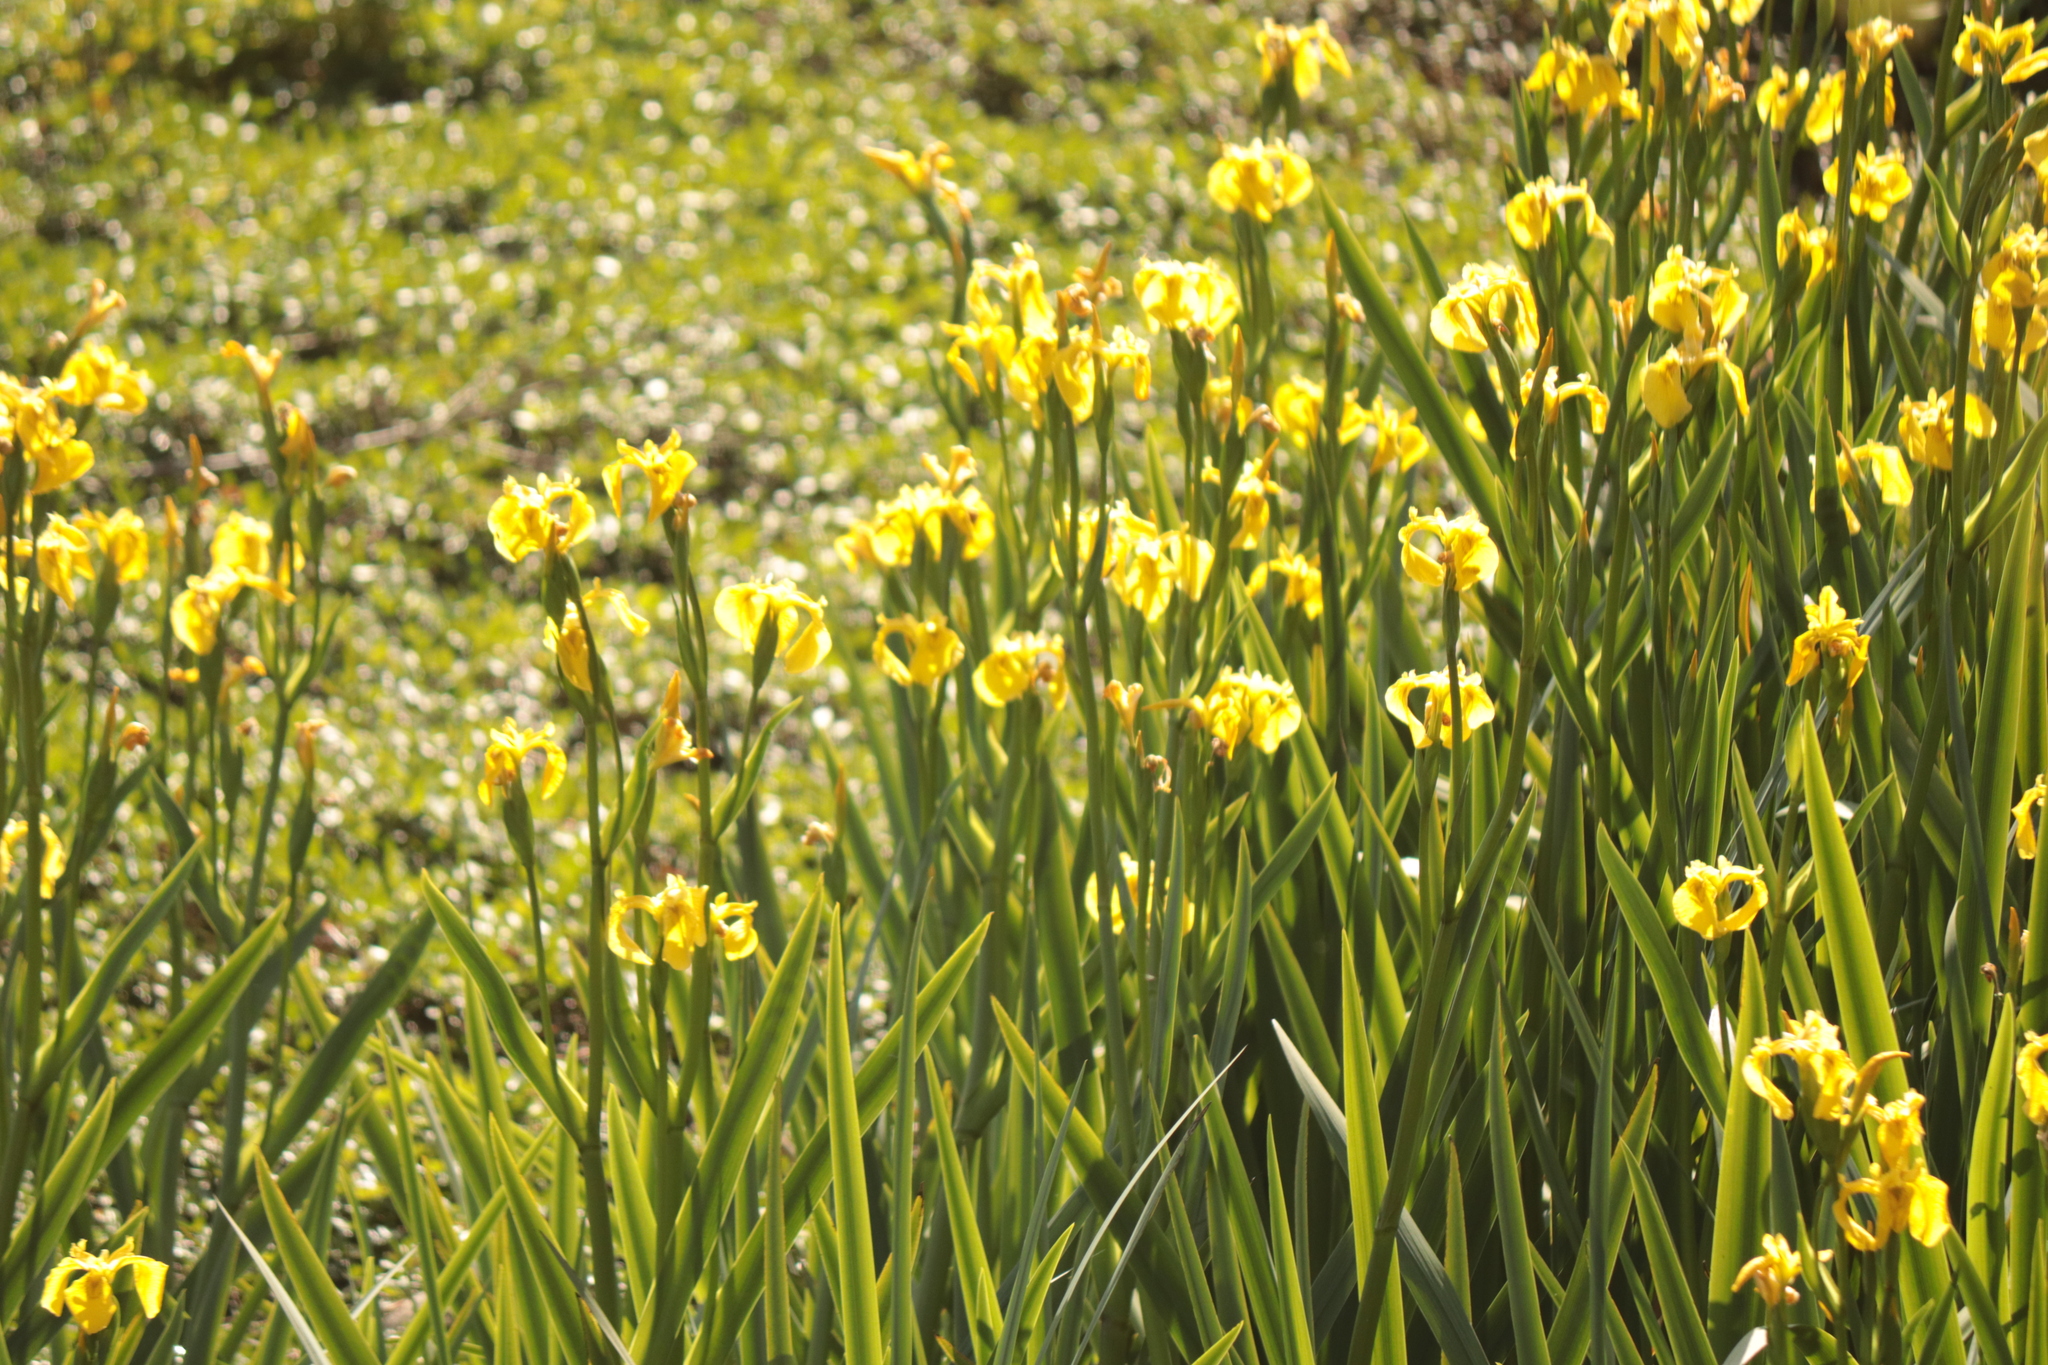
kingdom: Plantae
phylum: Tracheophyta
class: Liliopsida
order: Asparagales
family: Iridaceae
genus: Iris
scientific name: Iris pseudacorus
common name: Yellow flag
